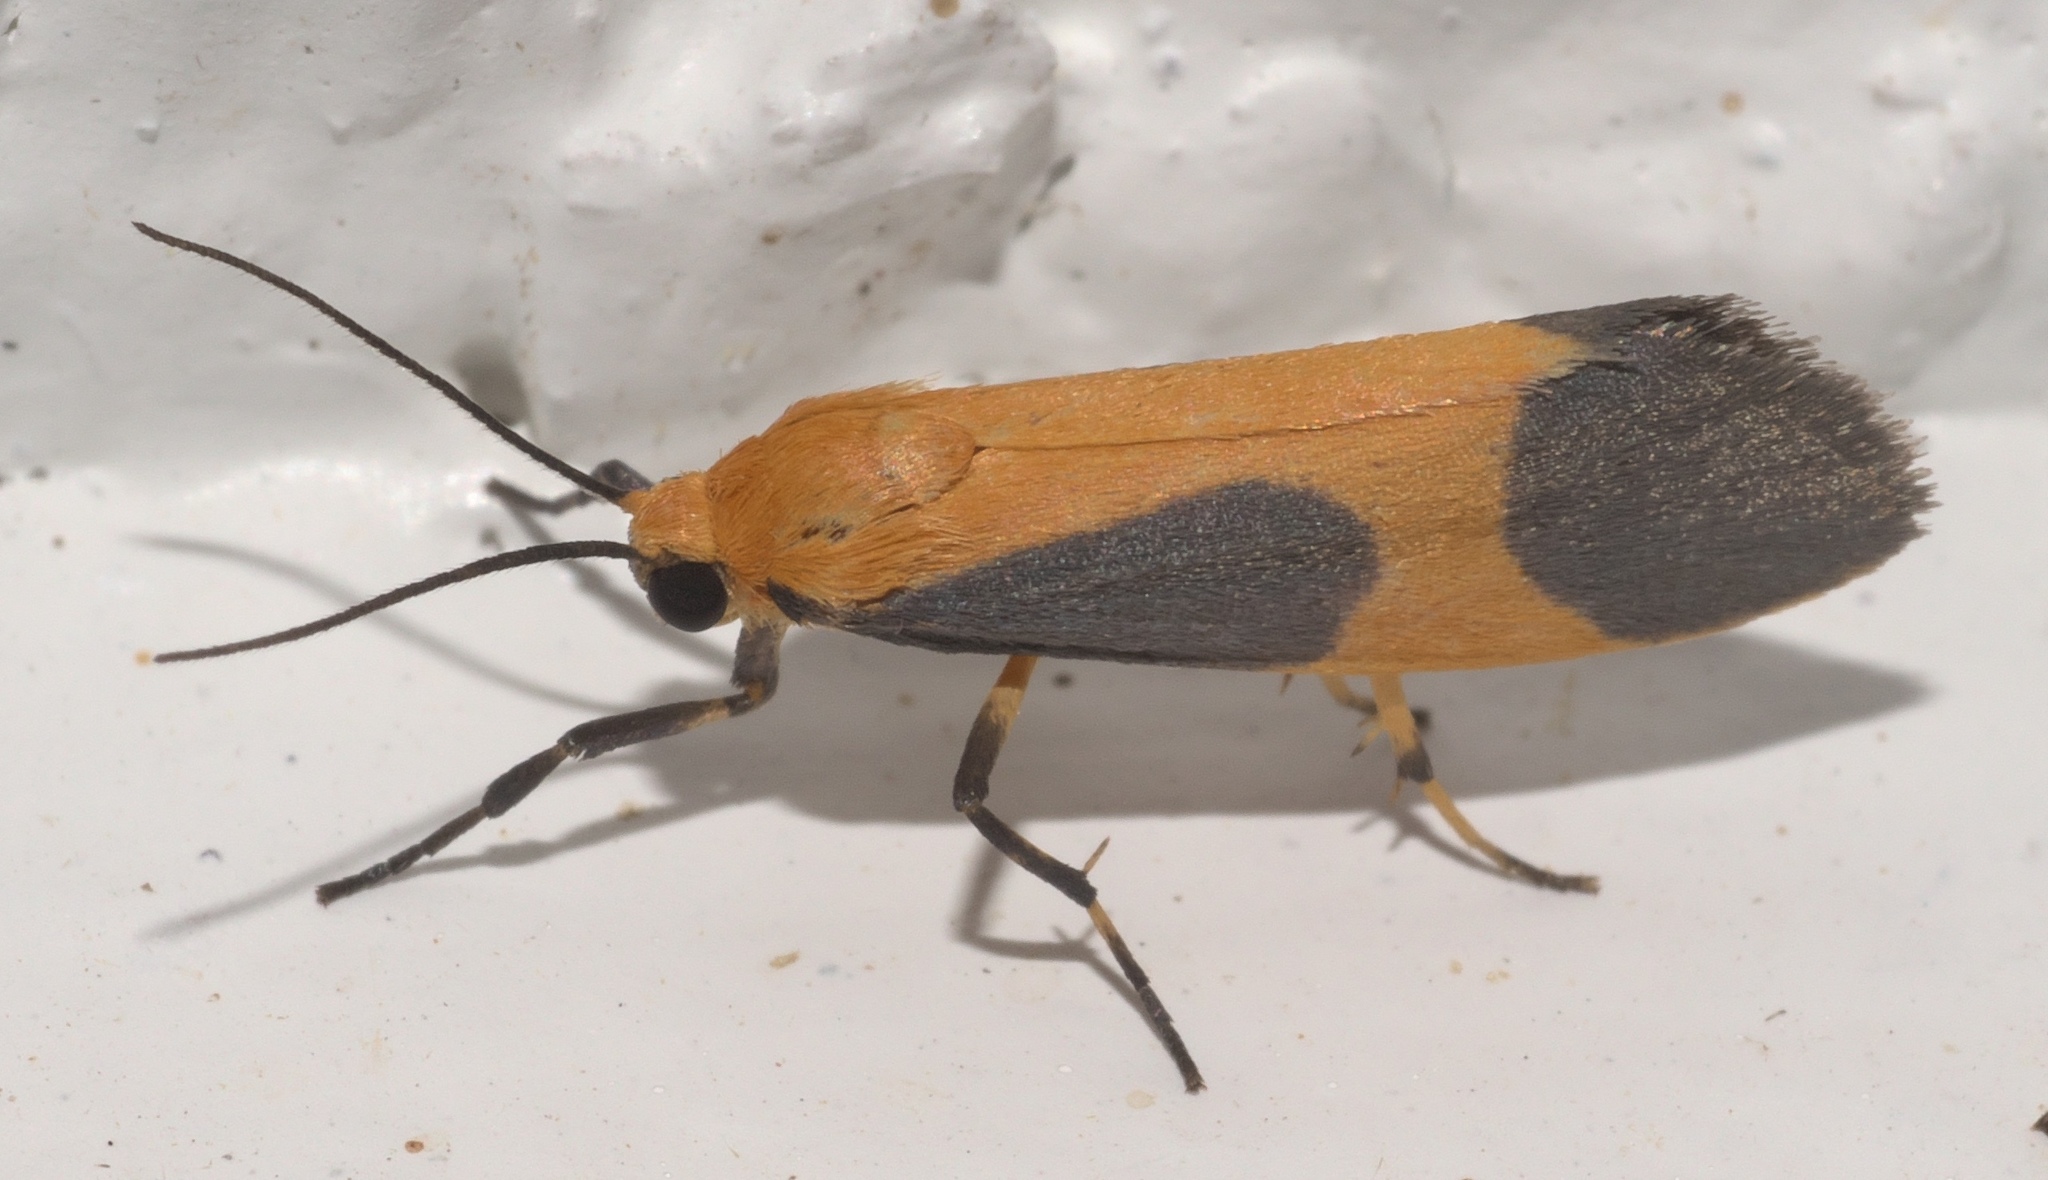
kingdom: Animalia
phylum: Arthropoda
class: Insecta
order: Lepidoptera
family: Erebidae
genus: Cisthene
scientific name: Cisthene picta
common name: Pictured lichen moth
